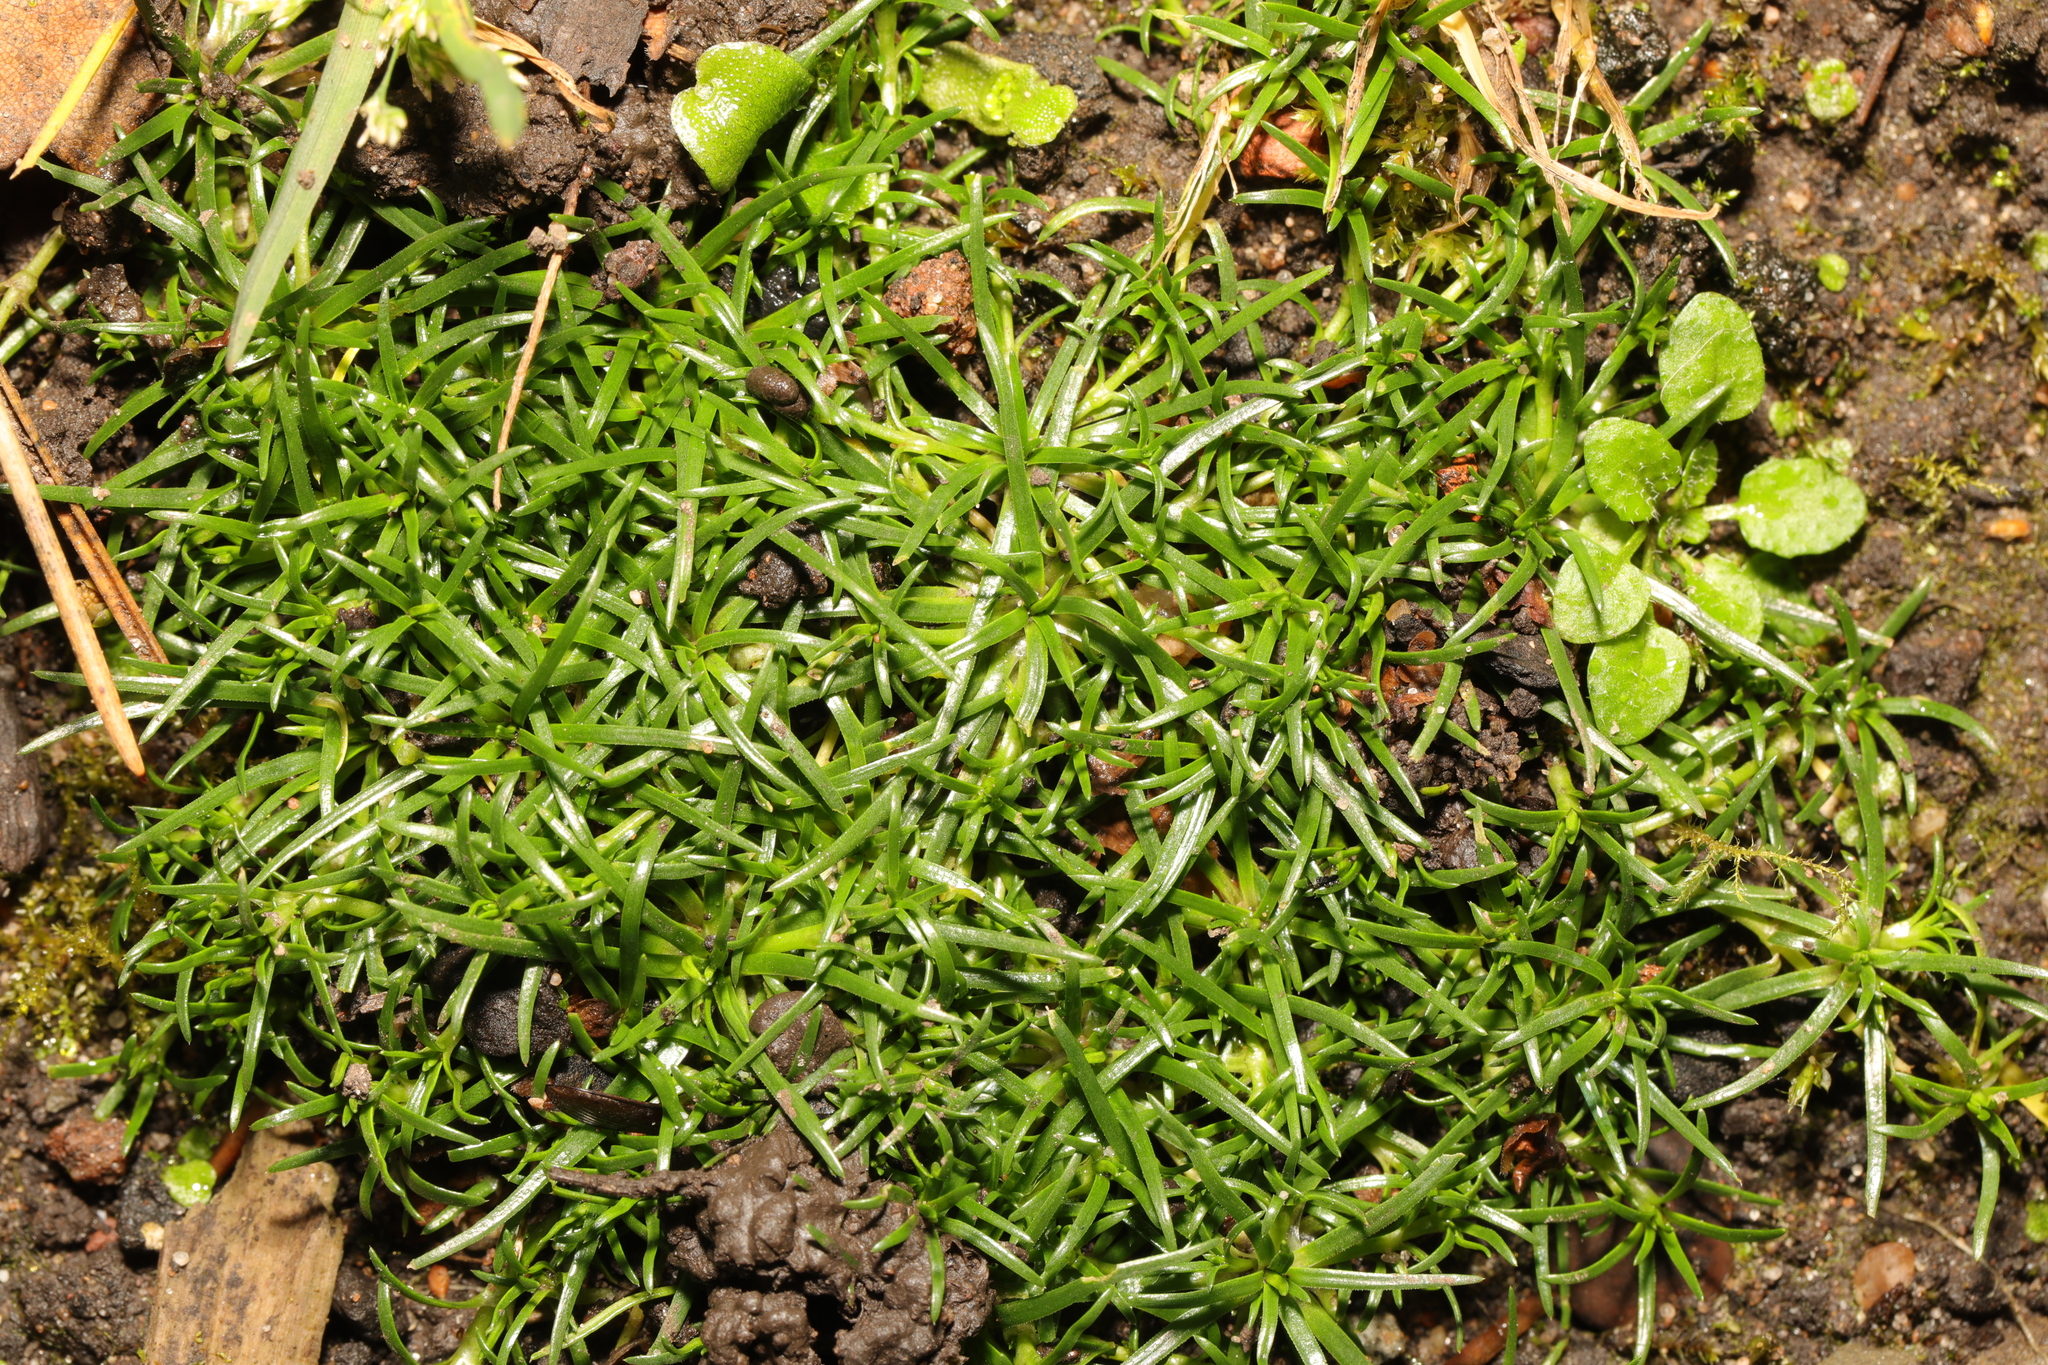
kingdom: Plantae
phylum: Tracheophyta
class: Magnoliopsida
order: Caryophyllales
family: Caryophyllaceae
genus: Sagina
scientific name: Sagina procumbens
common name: Procumbent pearlwort
